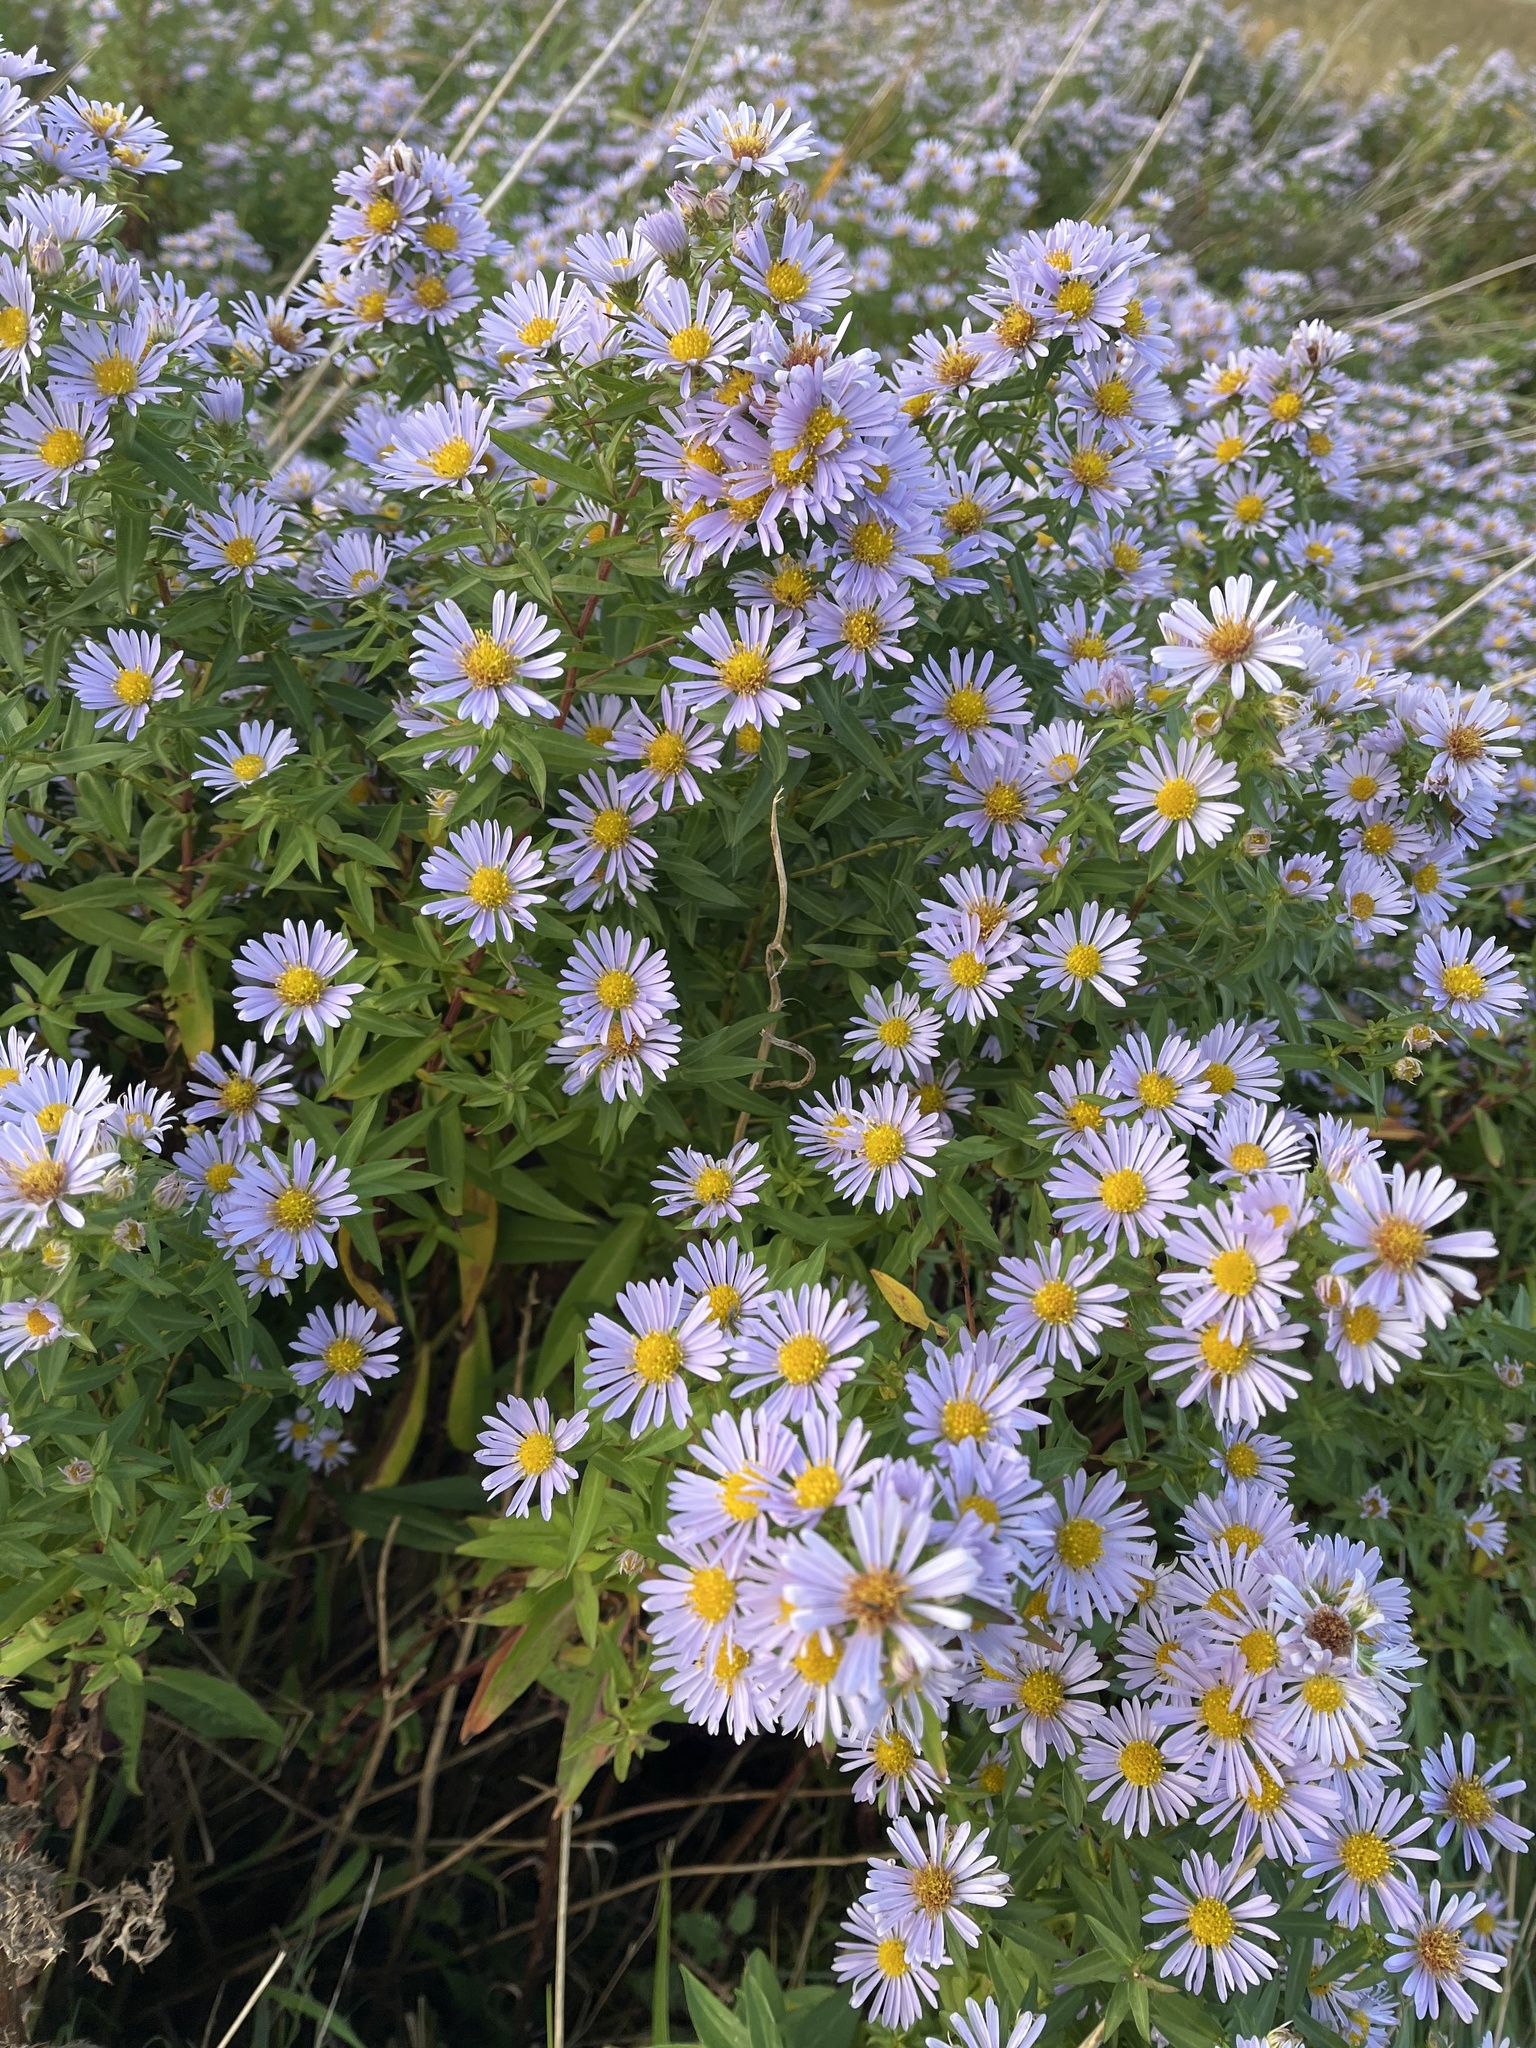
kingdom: Plantae
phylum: Tracheophyta
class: Magnoliopsida
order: Asterales
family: Asteraceae
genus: Symphyotrichum
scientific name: Symphyotrichum novi-belgii
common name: Michaelmas daisy
